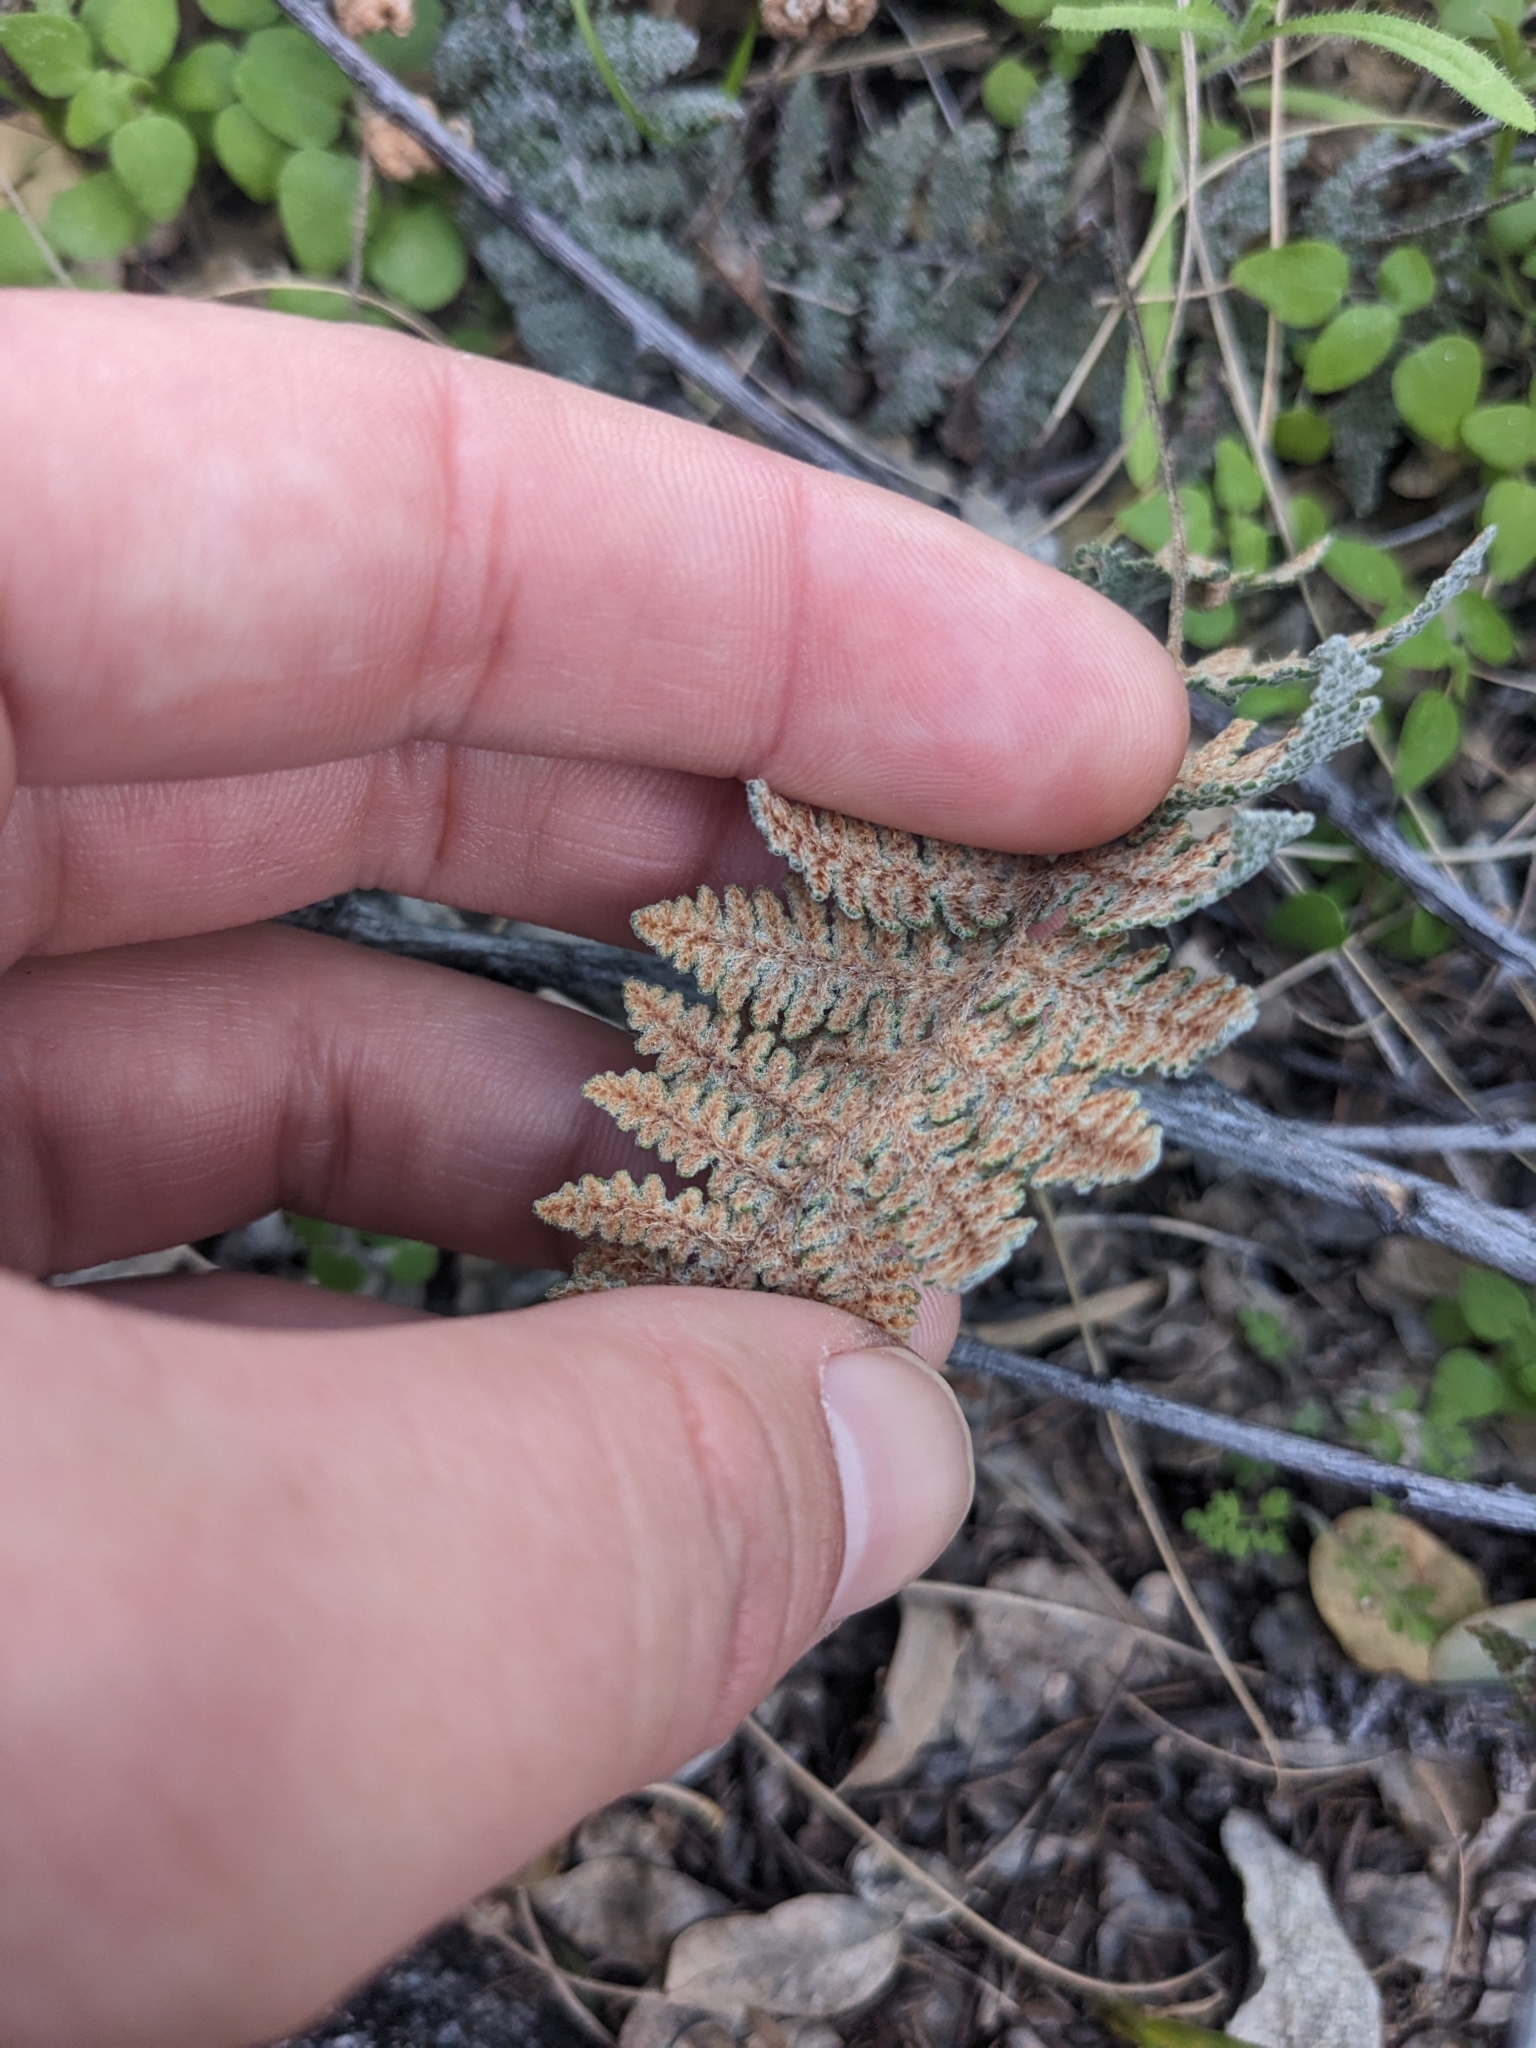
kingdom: Plantae
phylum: Tracheophyta
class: Polypodiopsida
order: Polypodiales
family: Pteridaceae
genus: Myriopteris
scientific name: Myriopteris lindheimeri
